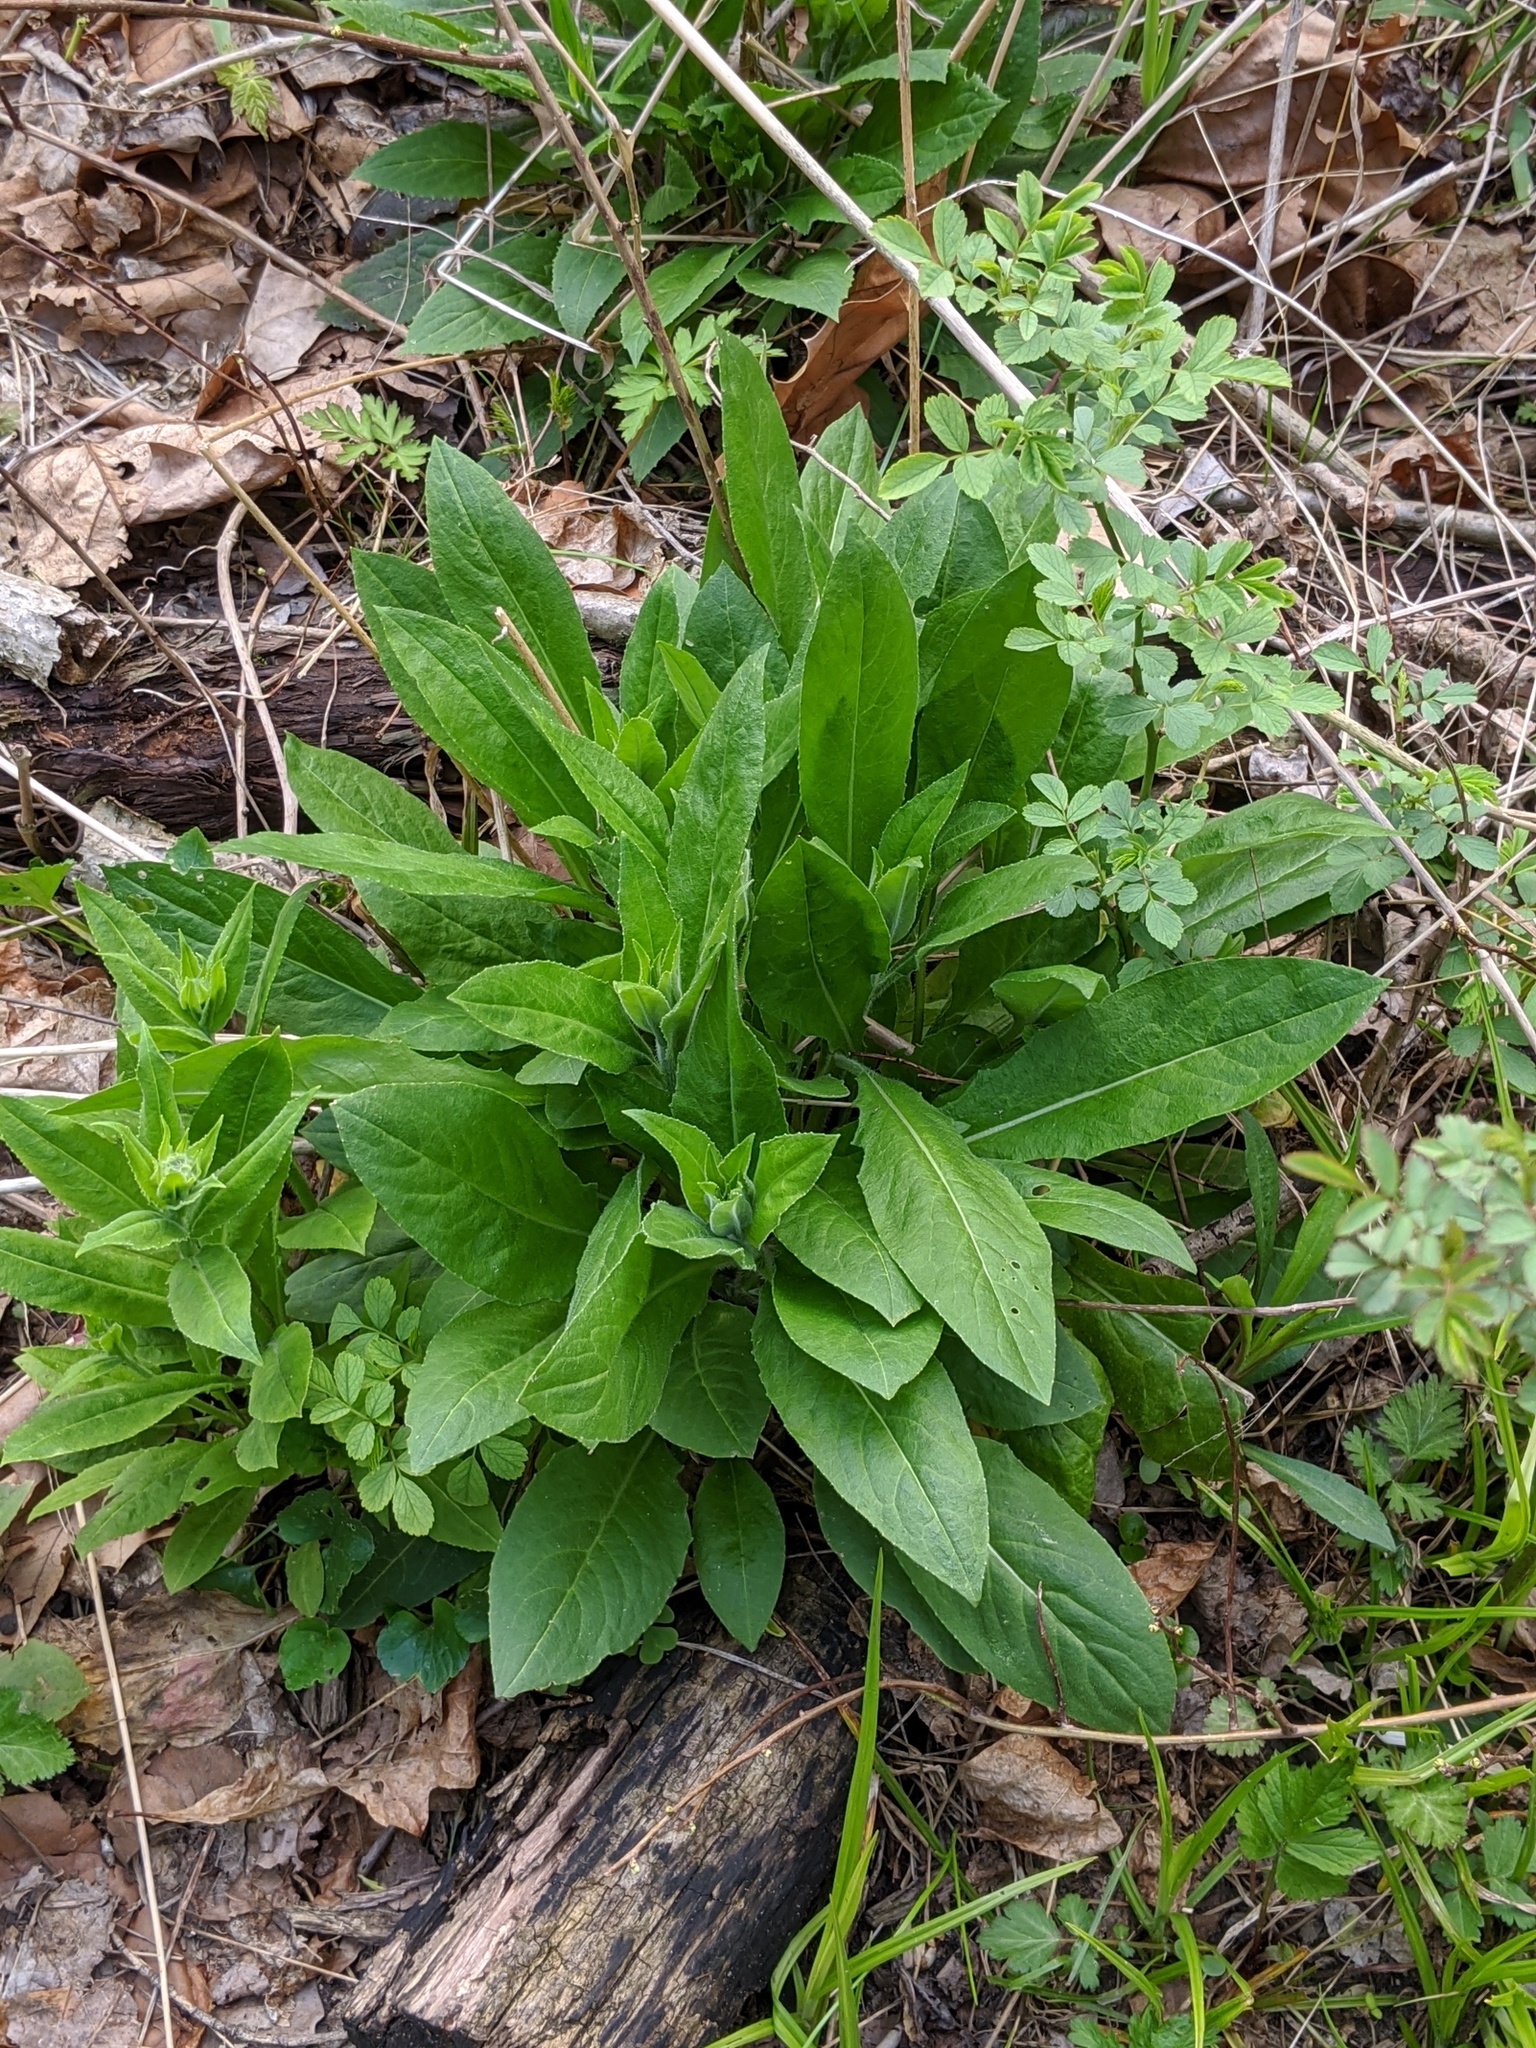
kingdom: Plantae
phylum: Tracheophyta
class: Magnoliopsida
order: Brassicales
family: Brassicaceae
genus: Hesperis
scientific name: Hesperis matronalis
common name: Dame's-violet
